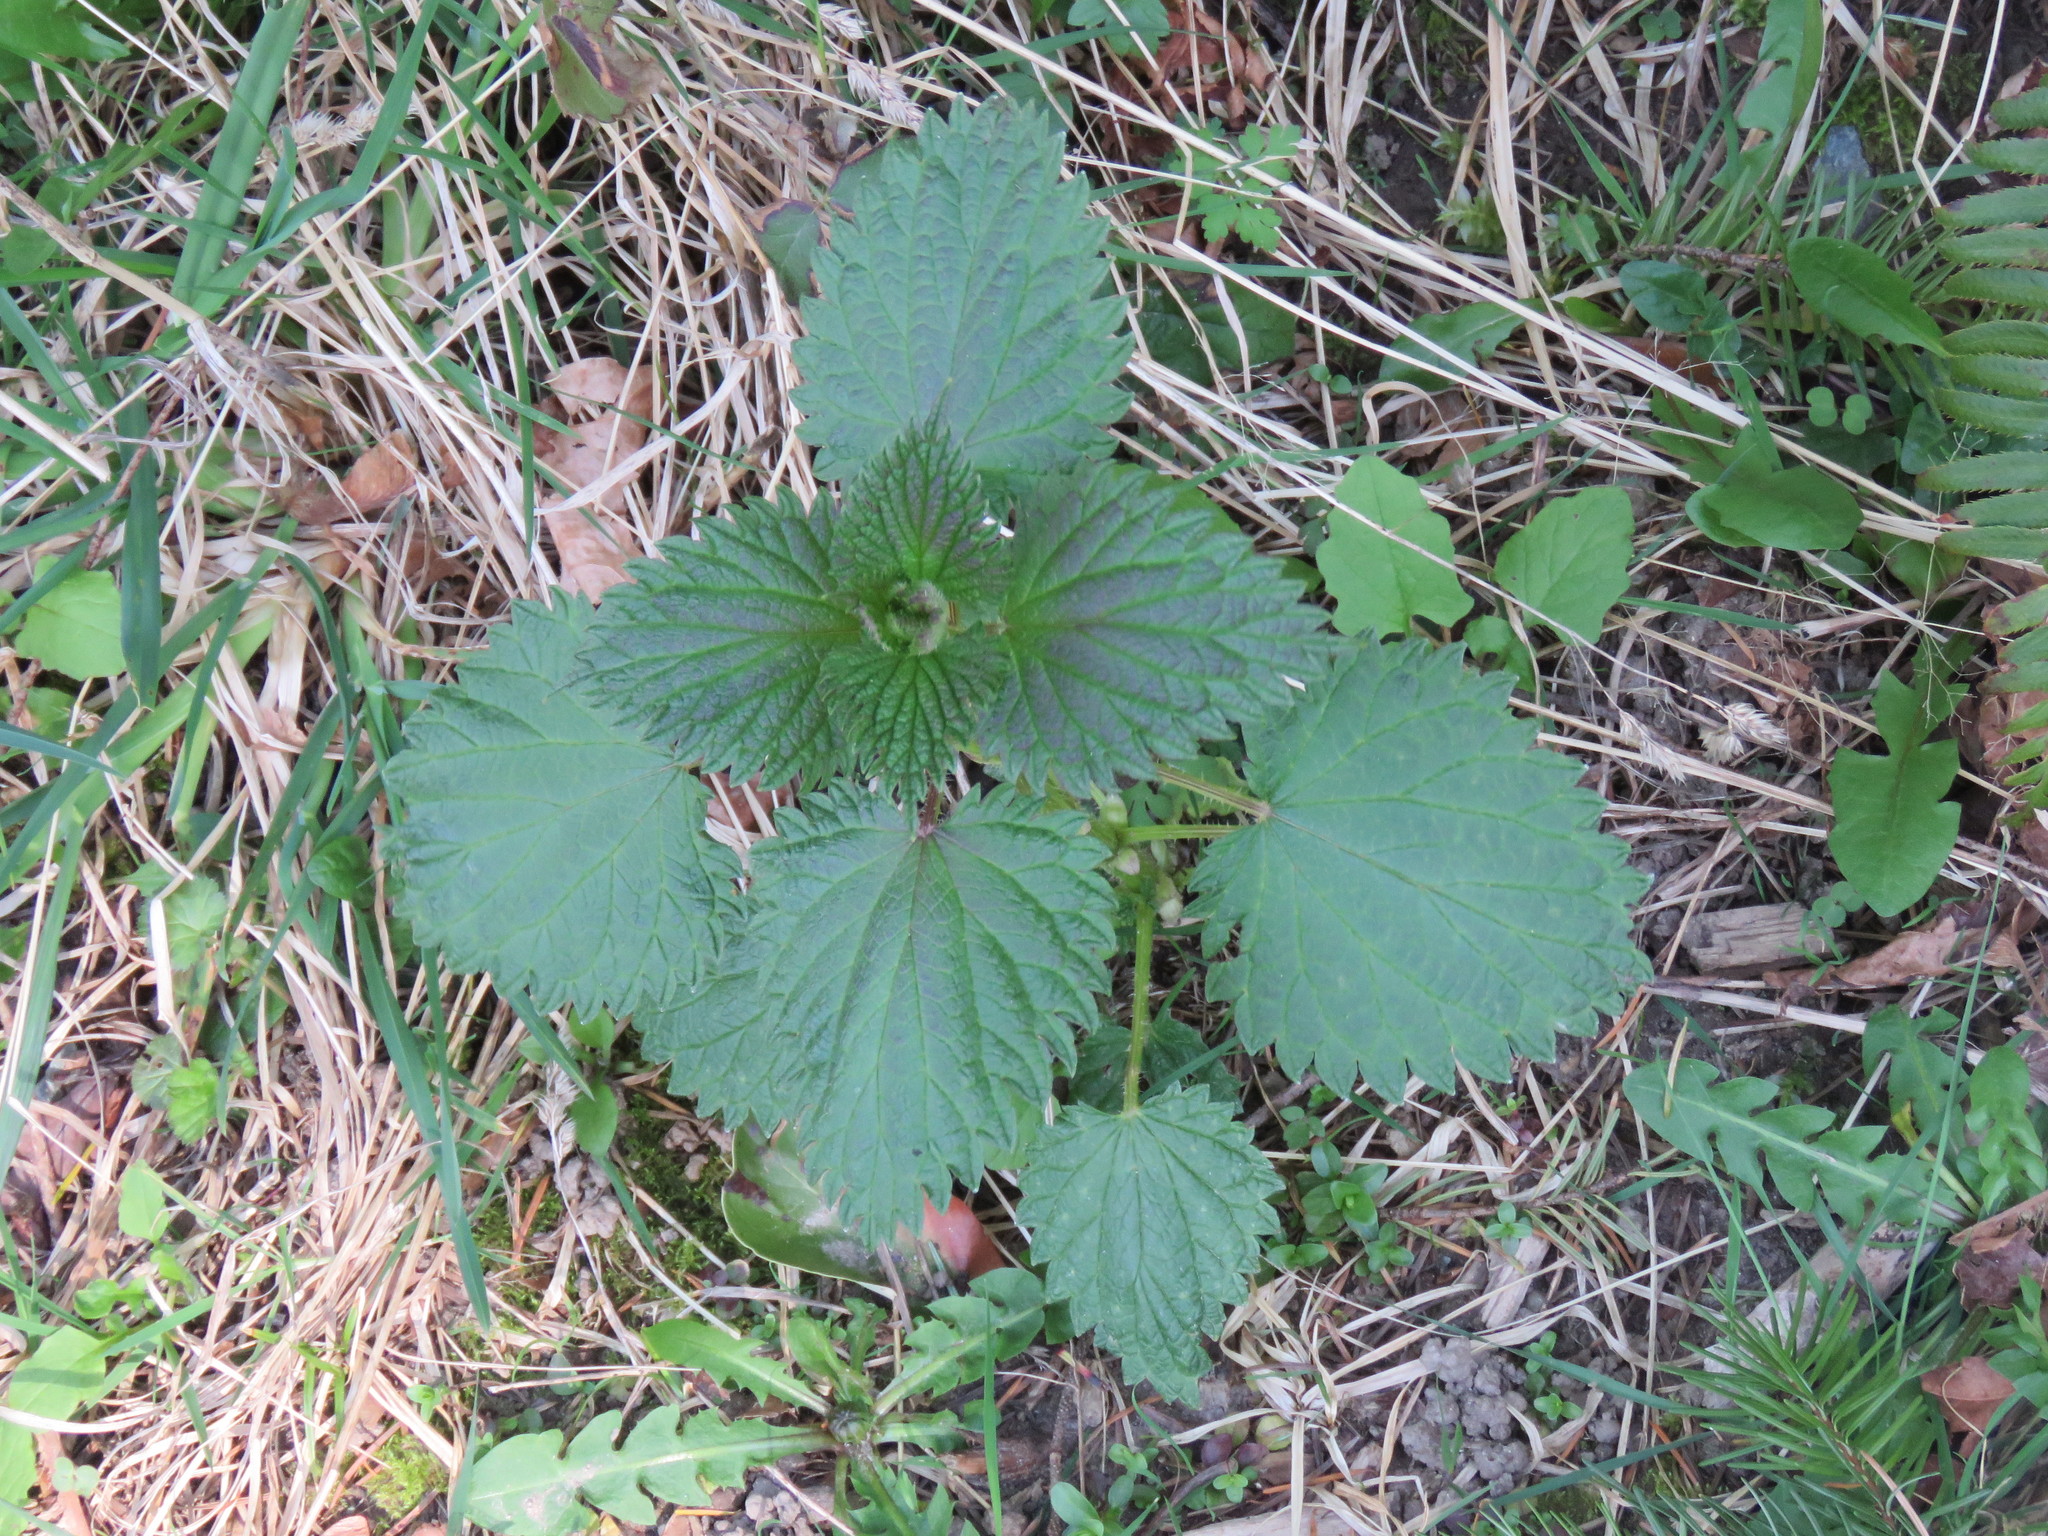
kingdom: Plantae
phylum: Tracheophyta
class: Magnoliopsida
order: Rosales
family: Urticaceae
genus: Urtica
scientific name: Urtica dioica
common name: Common nettle
